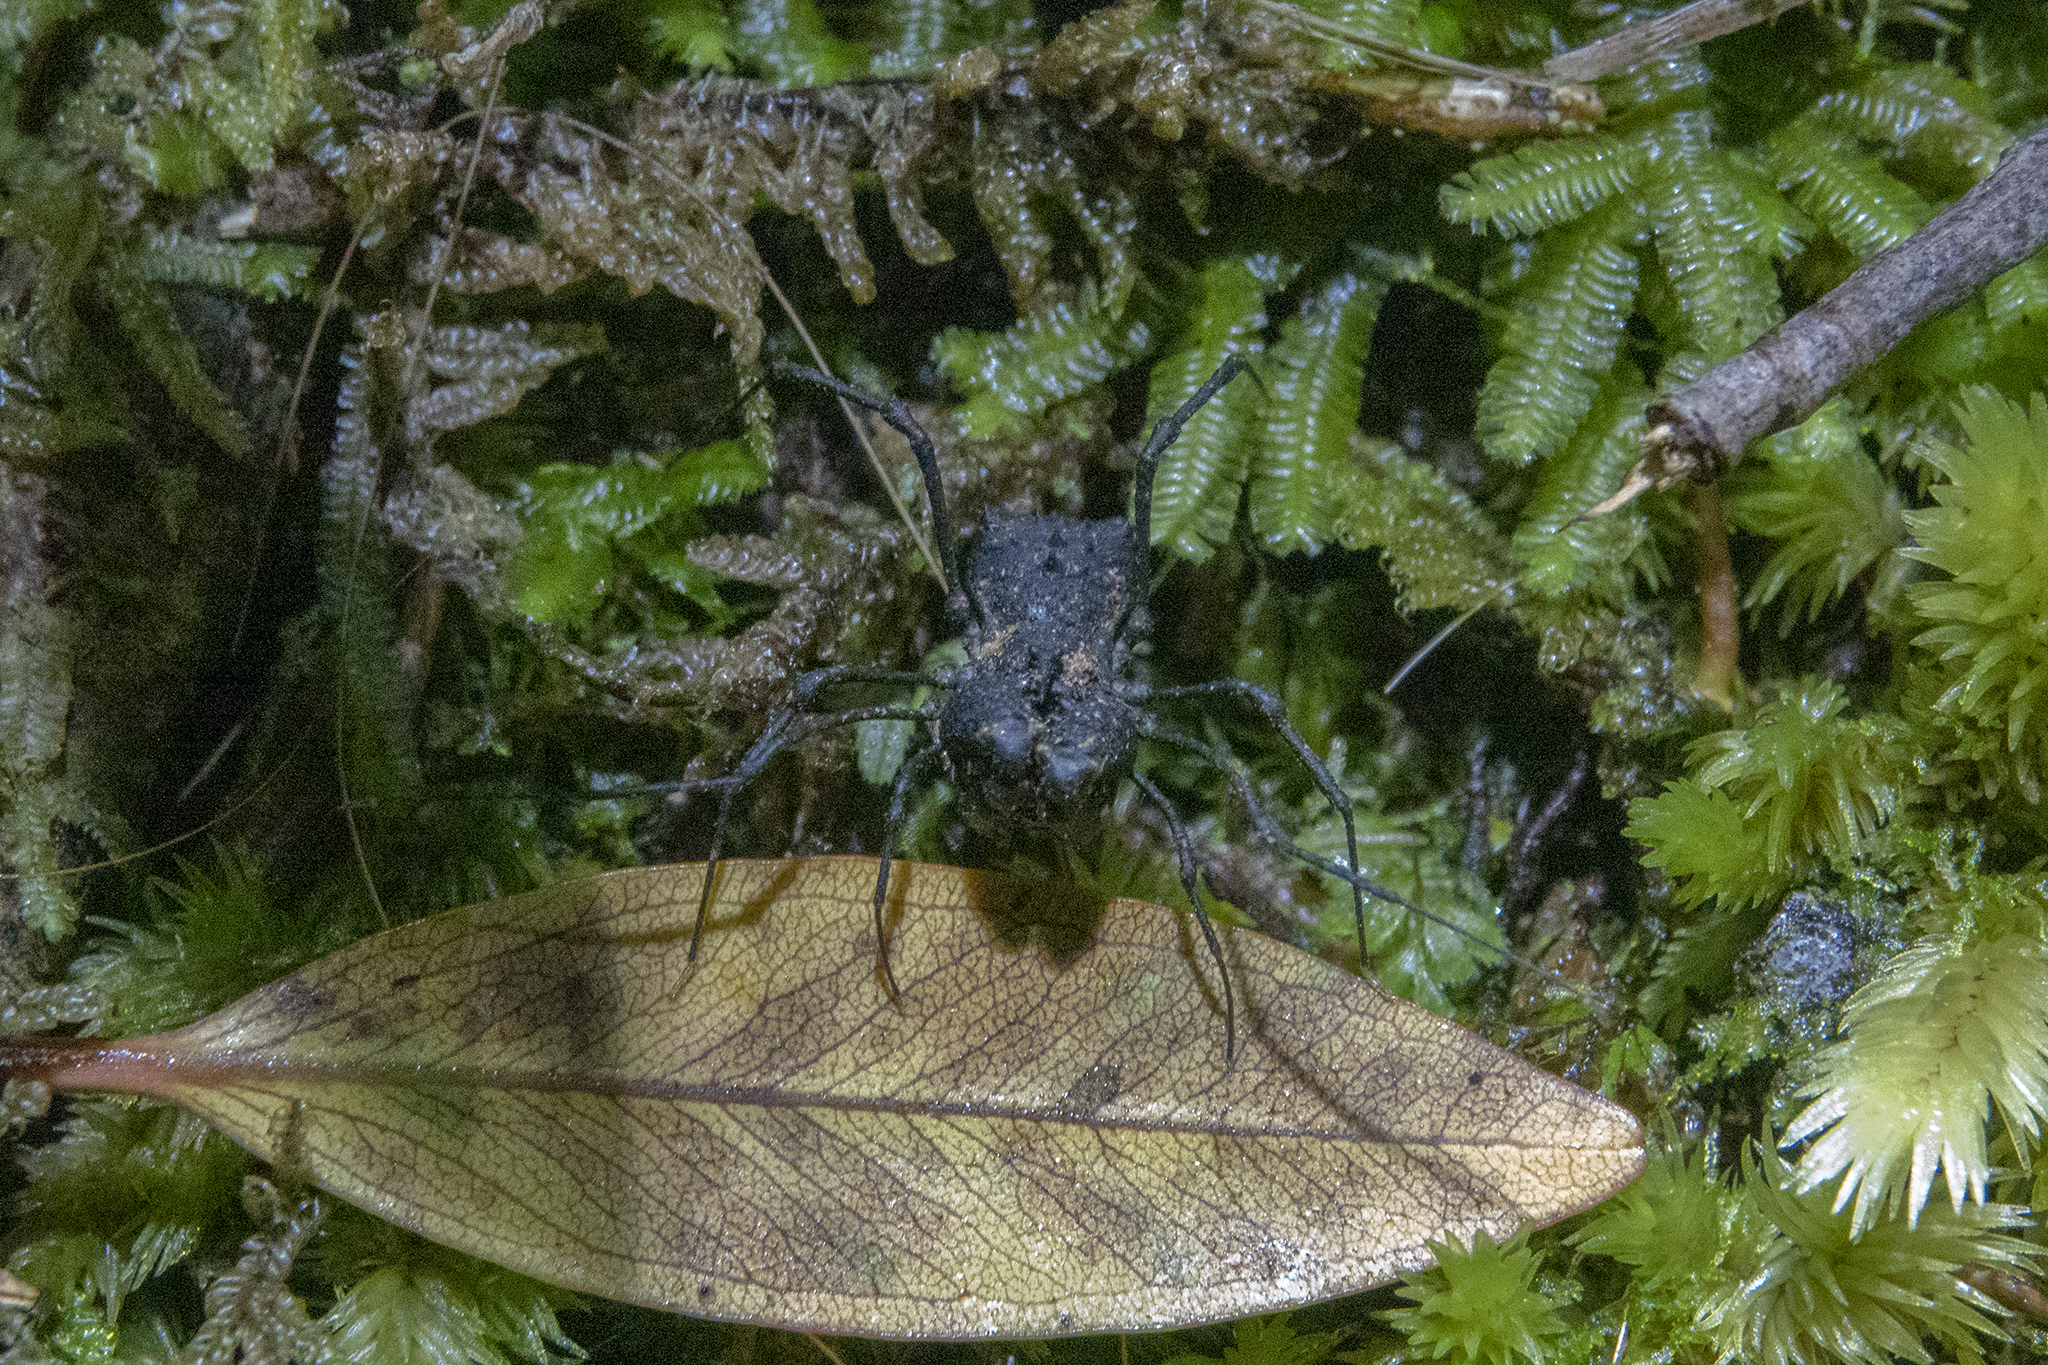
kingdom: Animalia
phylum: Arthropoda
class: Arachnida
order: Opiliones
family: Triaenonychidae
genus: Karamea
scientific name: Karamea lobata
